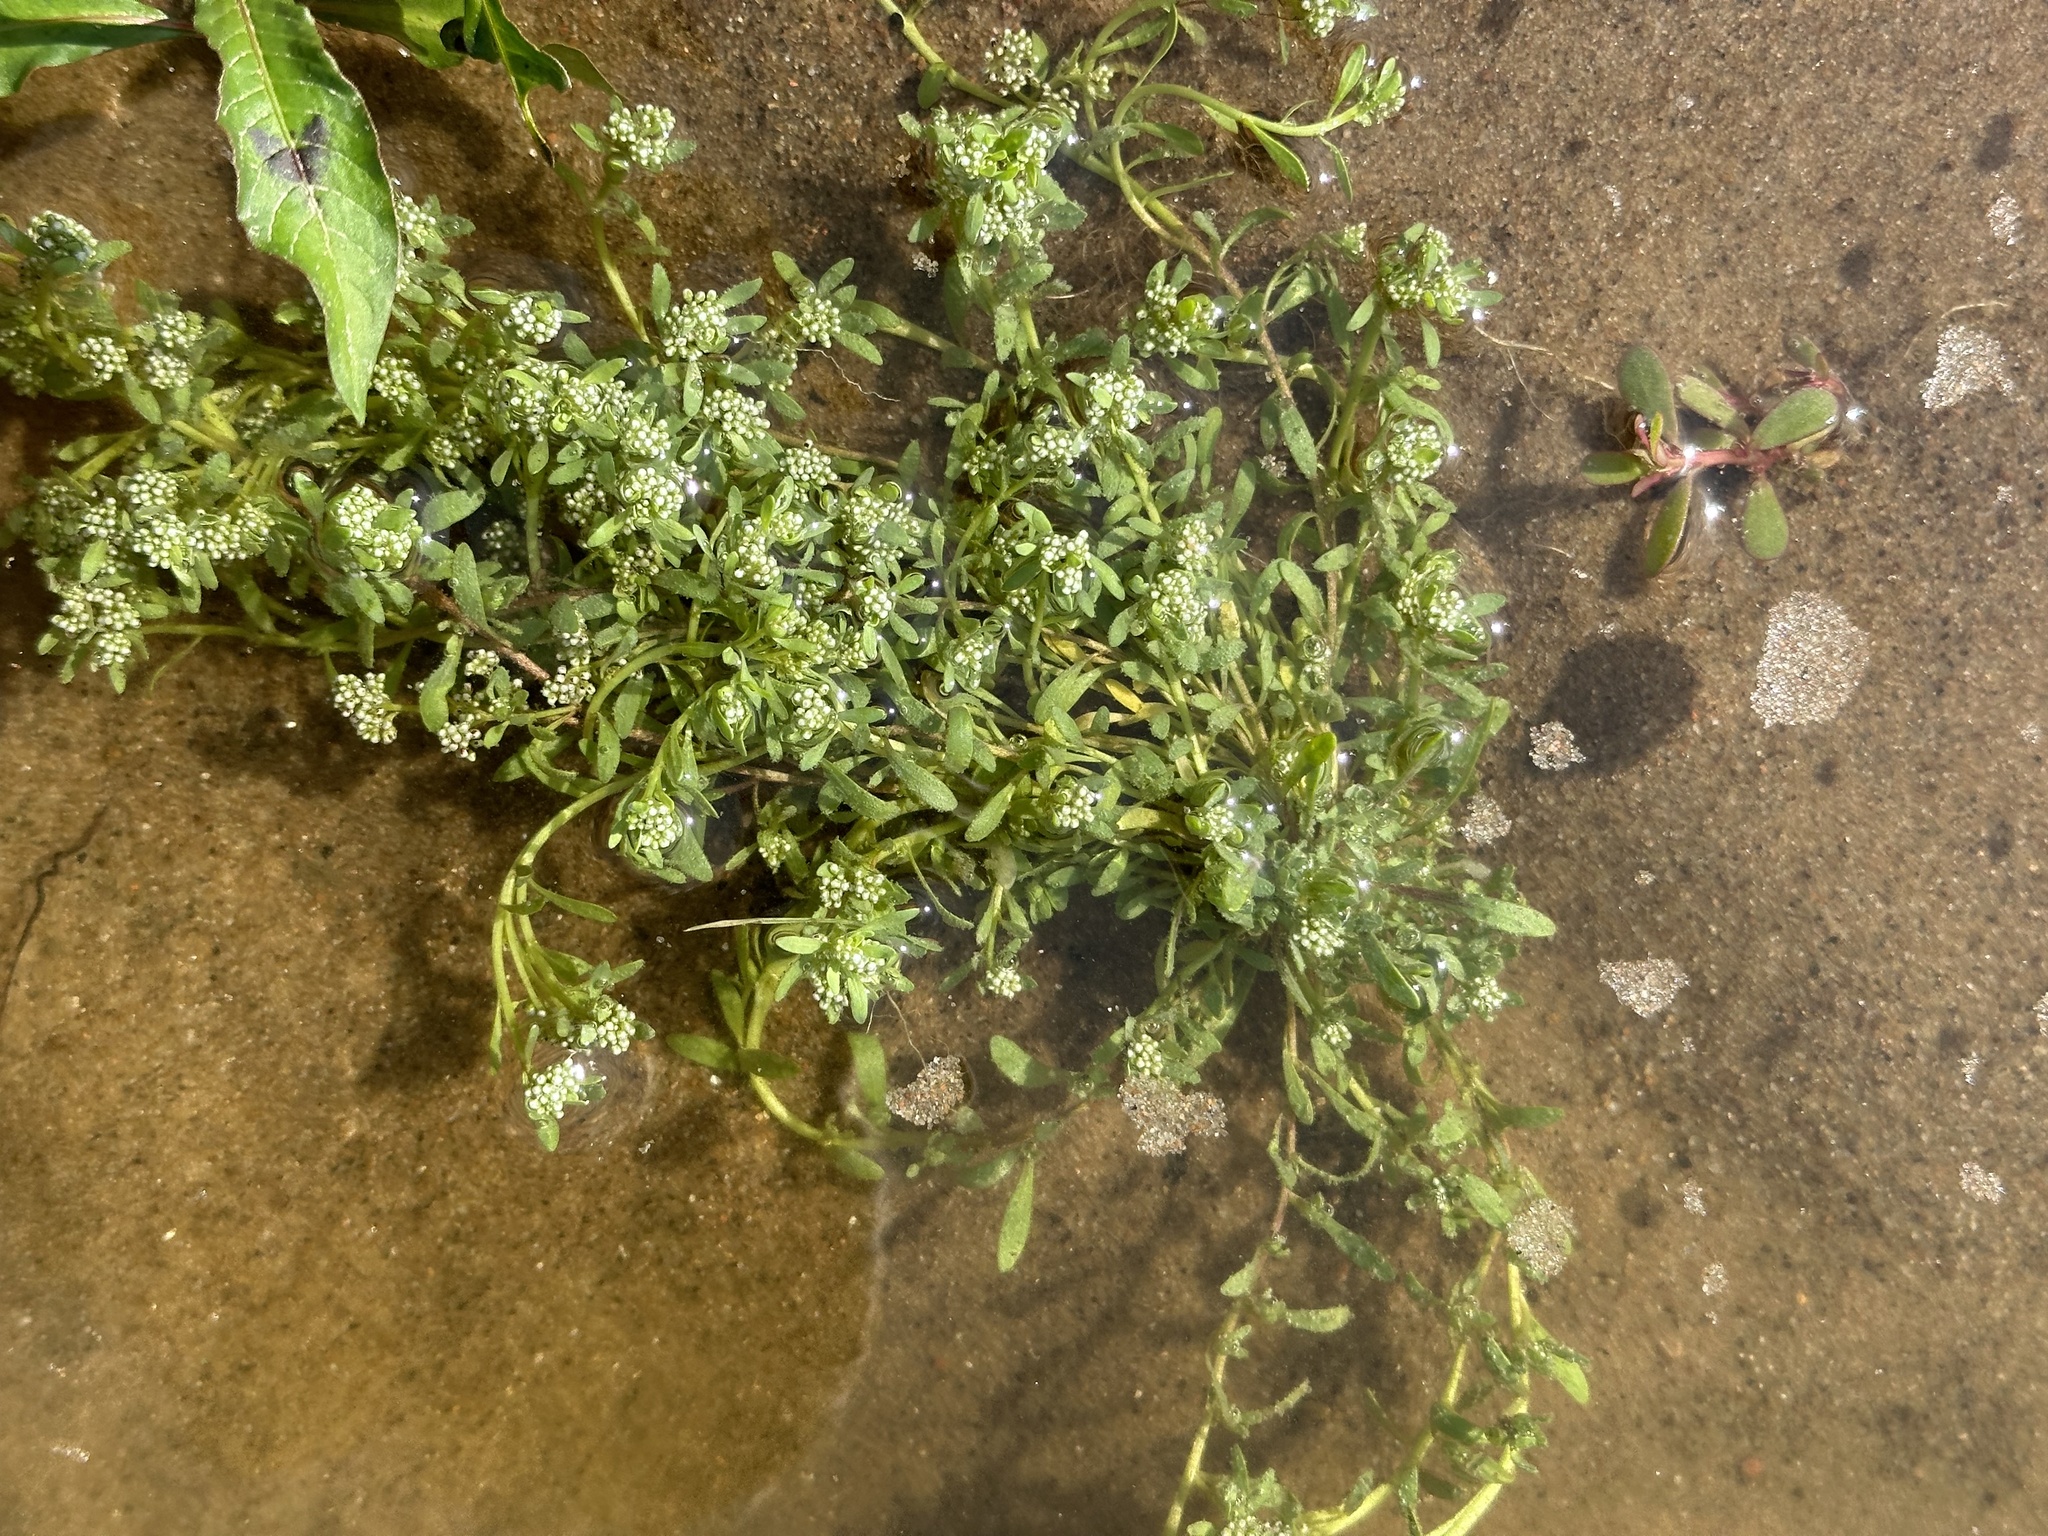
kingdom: Plantae
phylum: Tracheophyta
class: Magnoliopsida
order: Caryophyllales
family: Caryophyllaceae
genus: Corrigiola
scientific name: Corrigiola litoralis
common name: Strapwort
